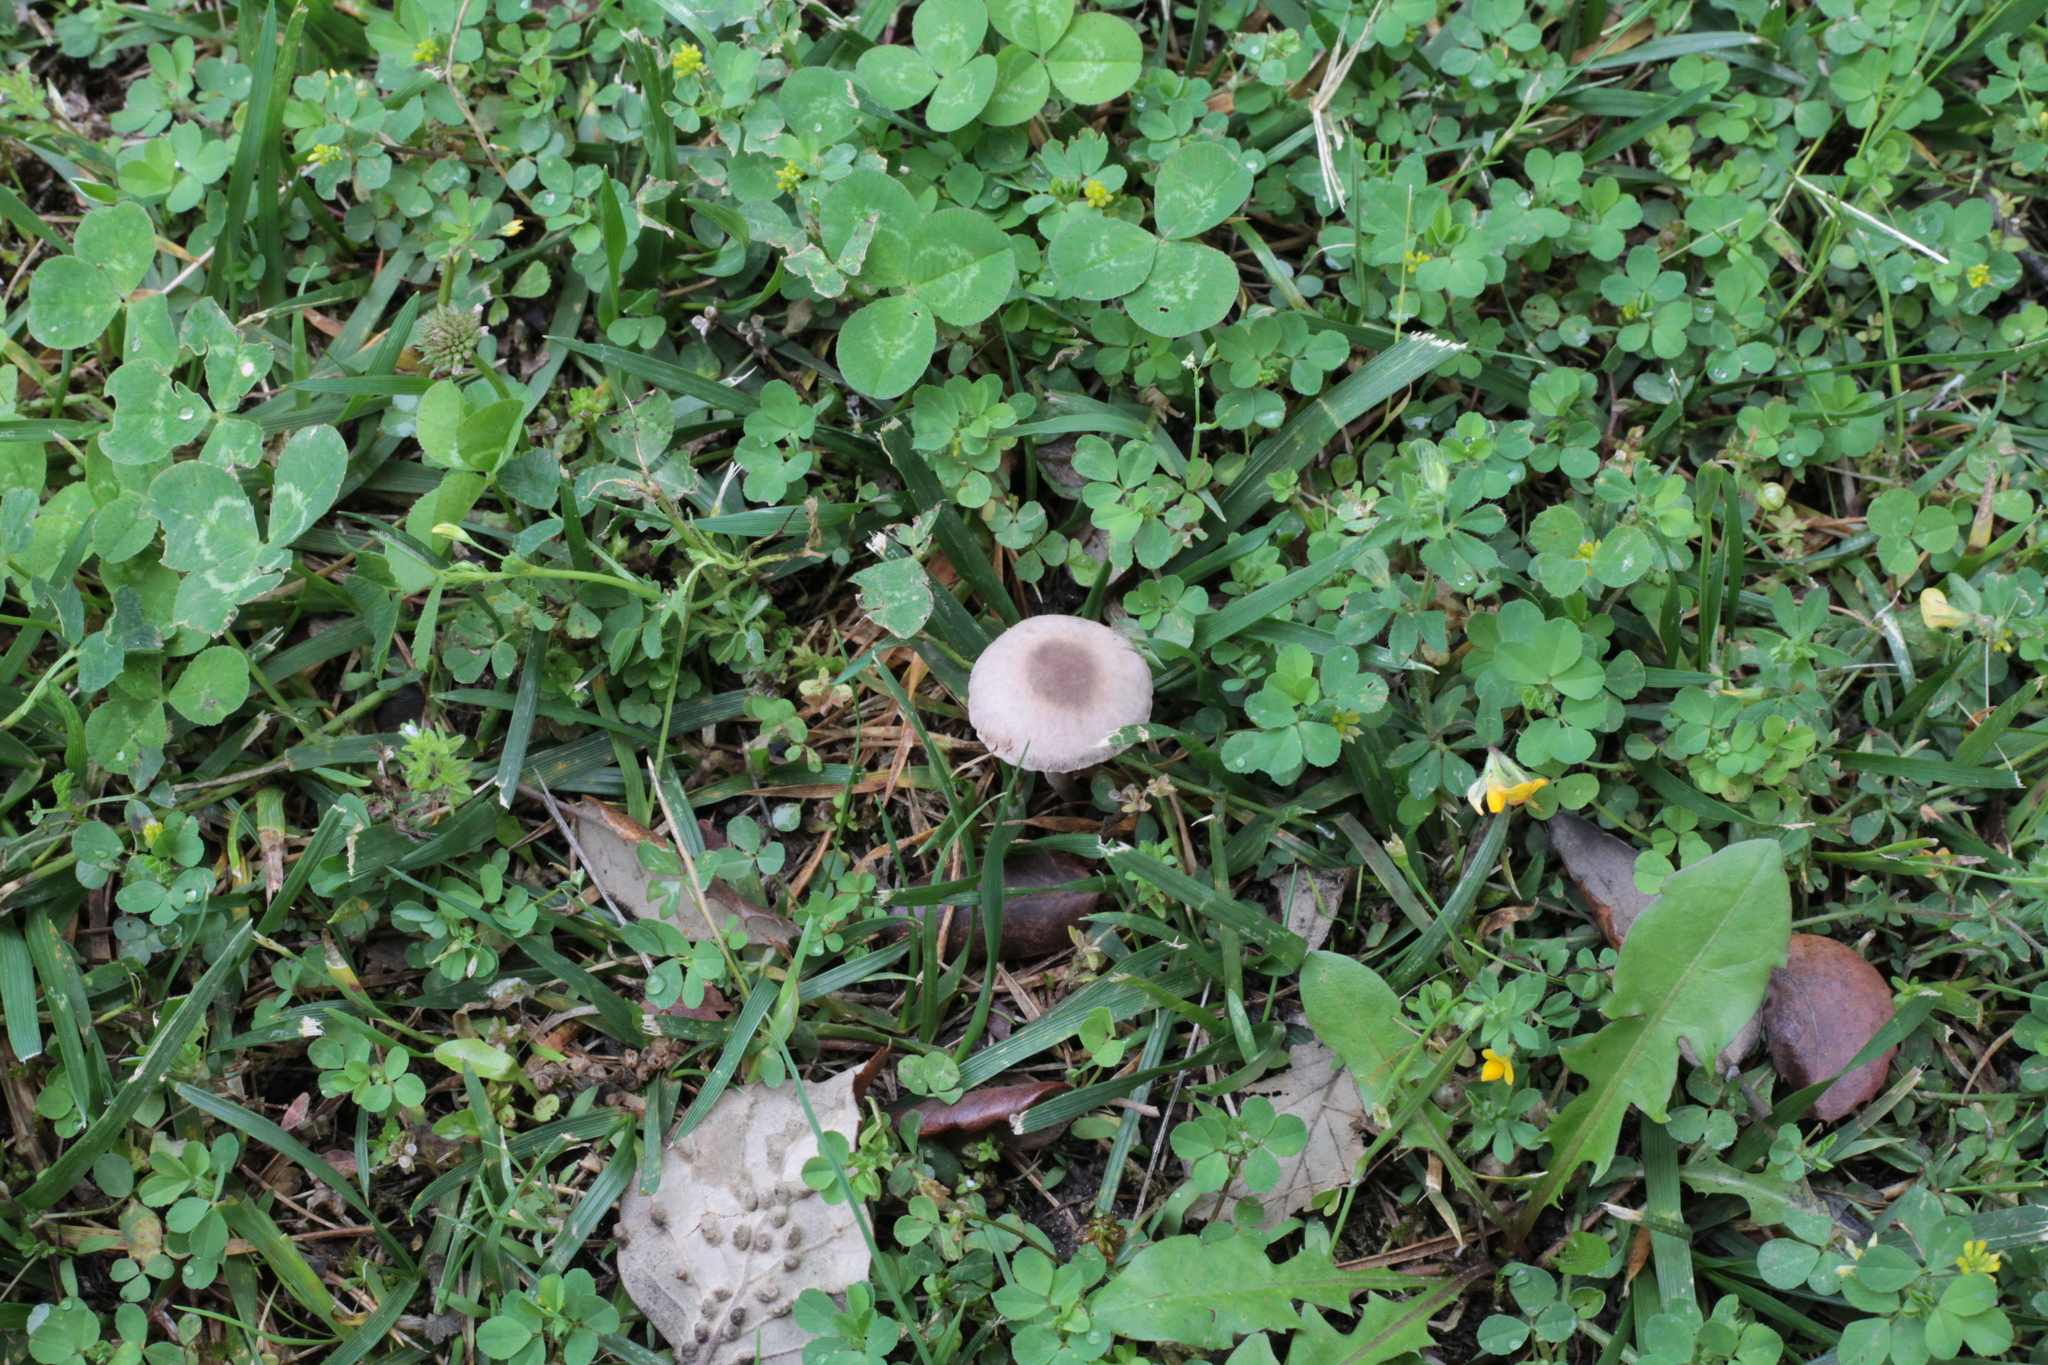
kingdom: Fungi
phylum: Basidiomycota
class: Agaricomycetes
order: Agaricales
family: Bolbitiaceae
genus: Panaeolina
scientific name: Panaeolina foenisecii
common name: Brown hay cap
